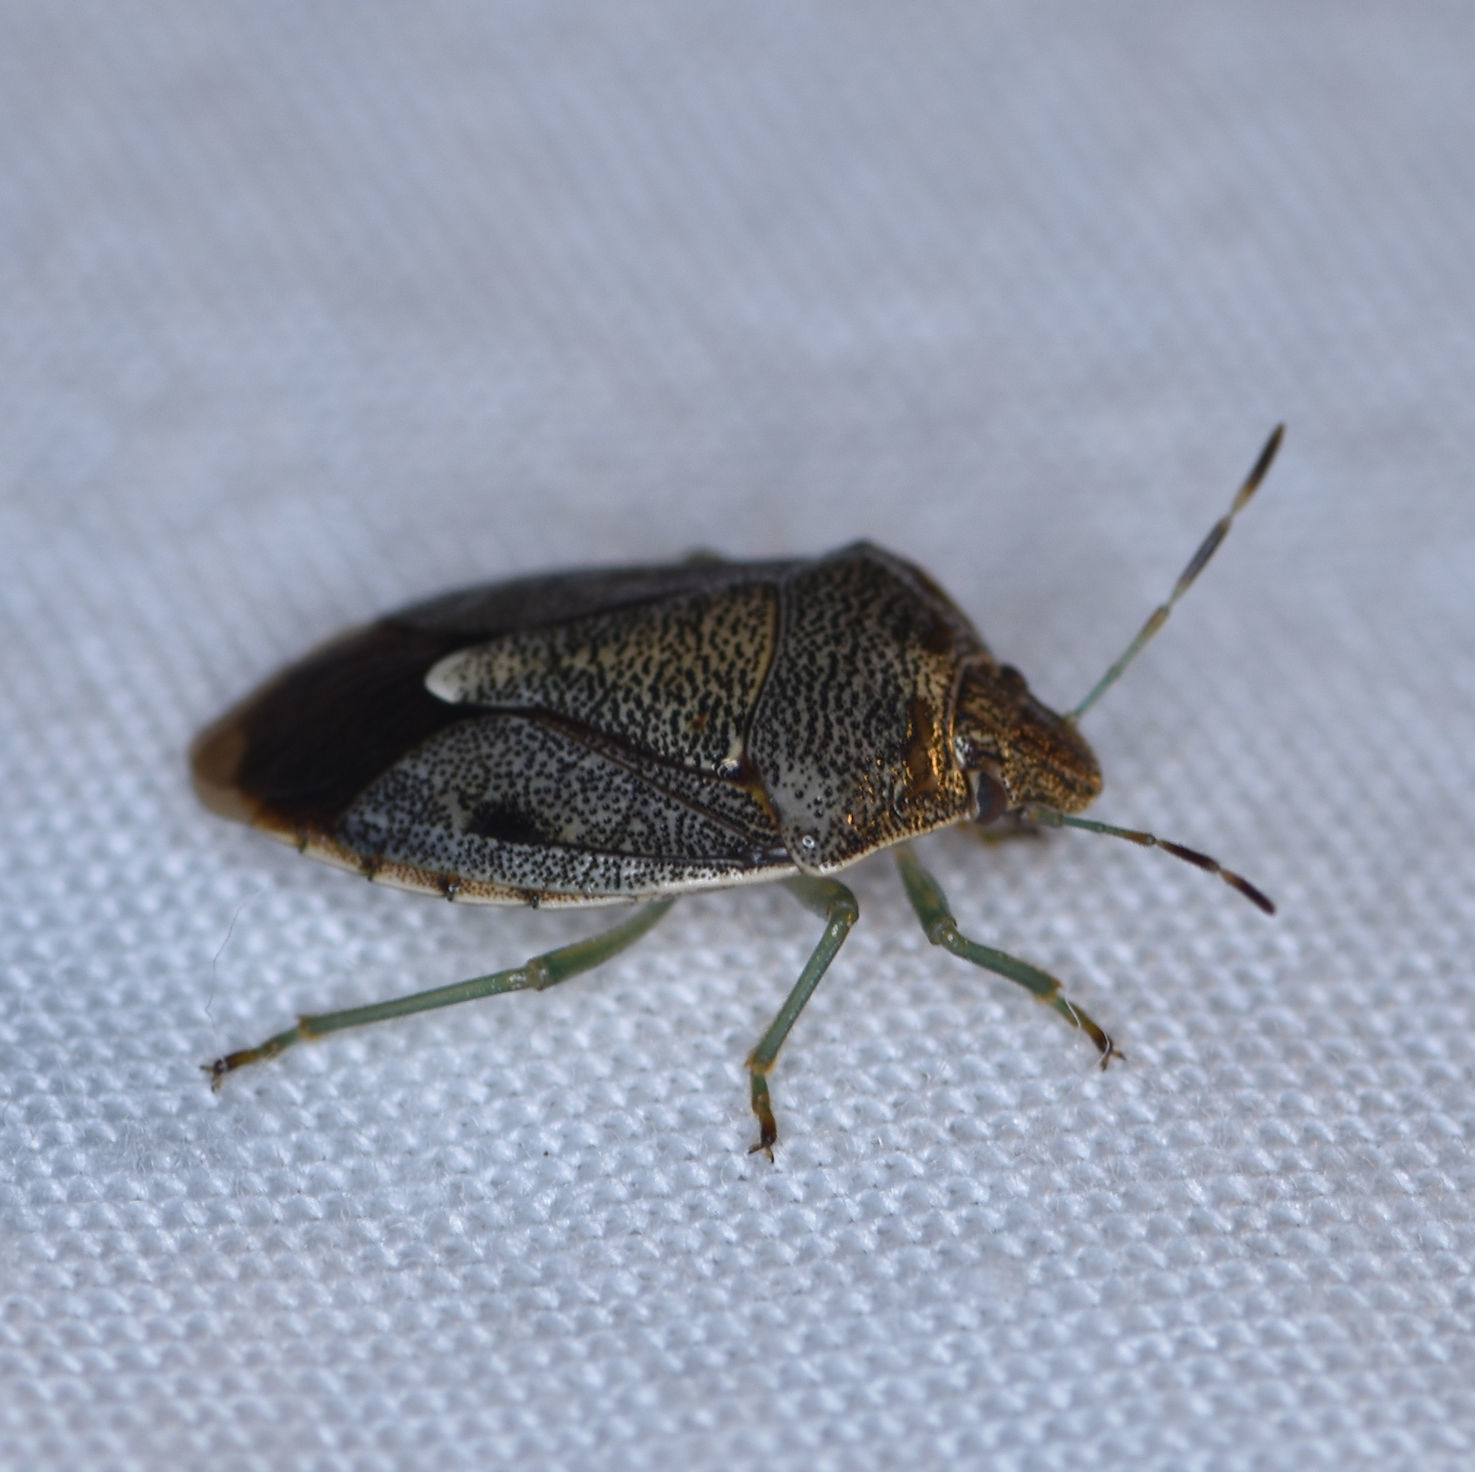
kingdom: Animalia
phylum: Arthropoda
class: Insecta
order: Hemiptera
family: Pentatomidae
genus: Banasa
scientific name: Banasa sordida
